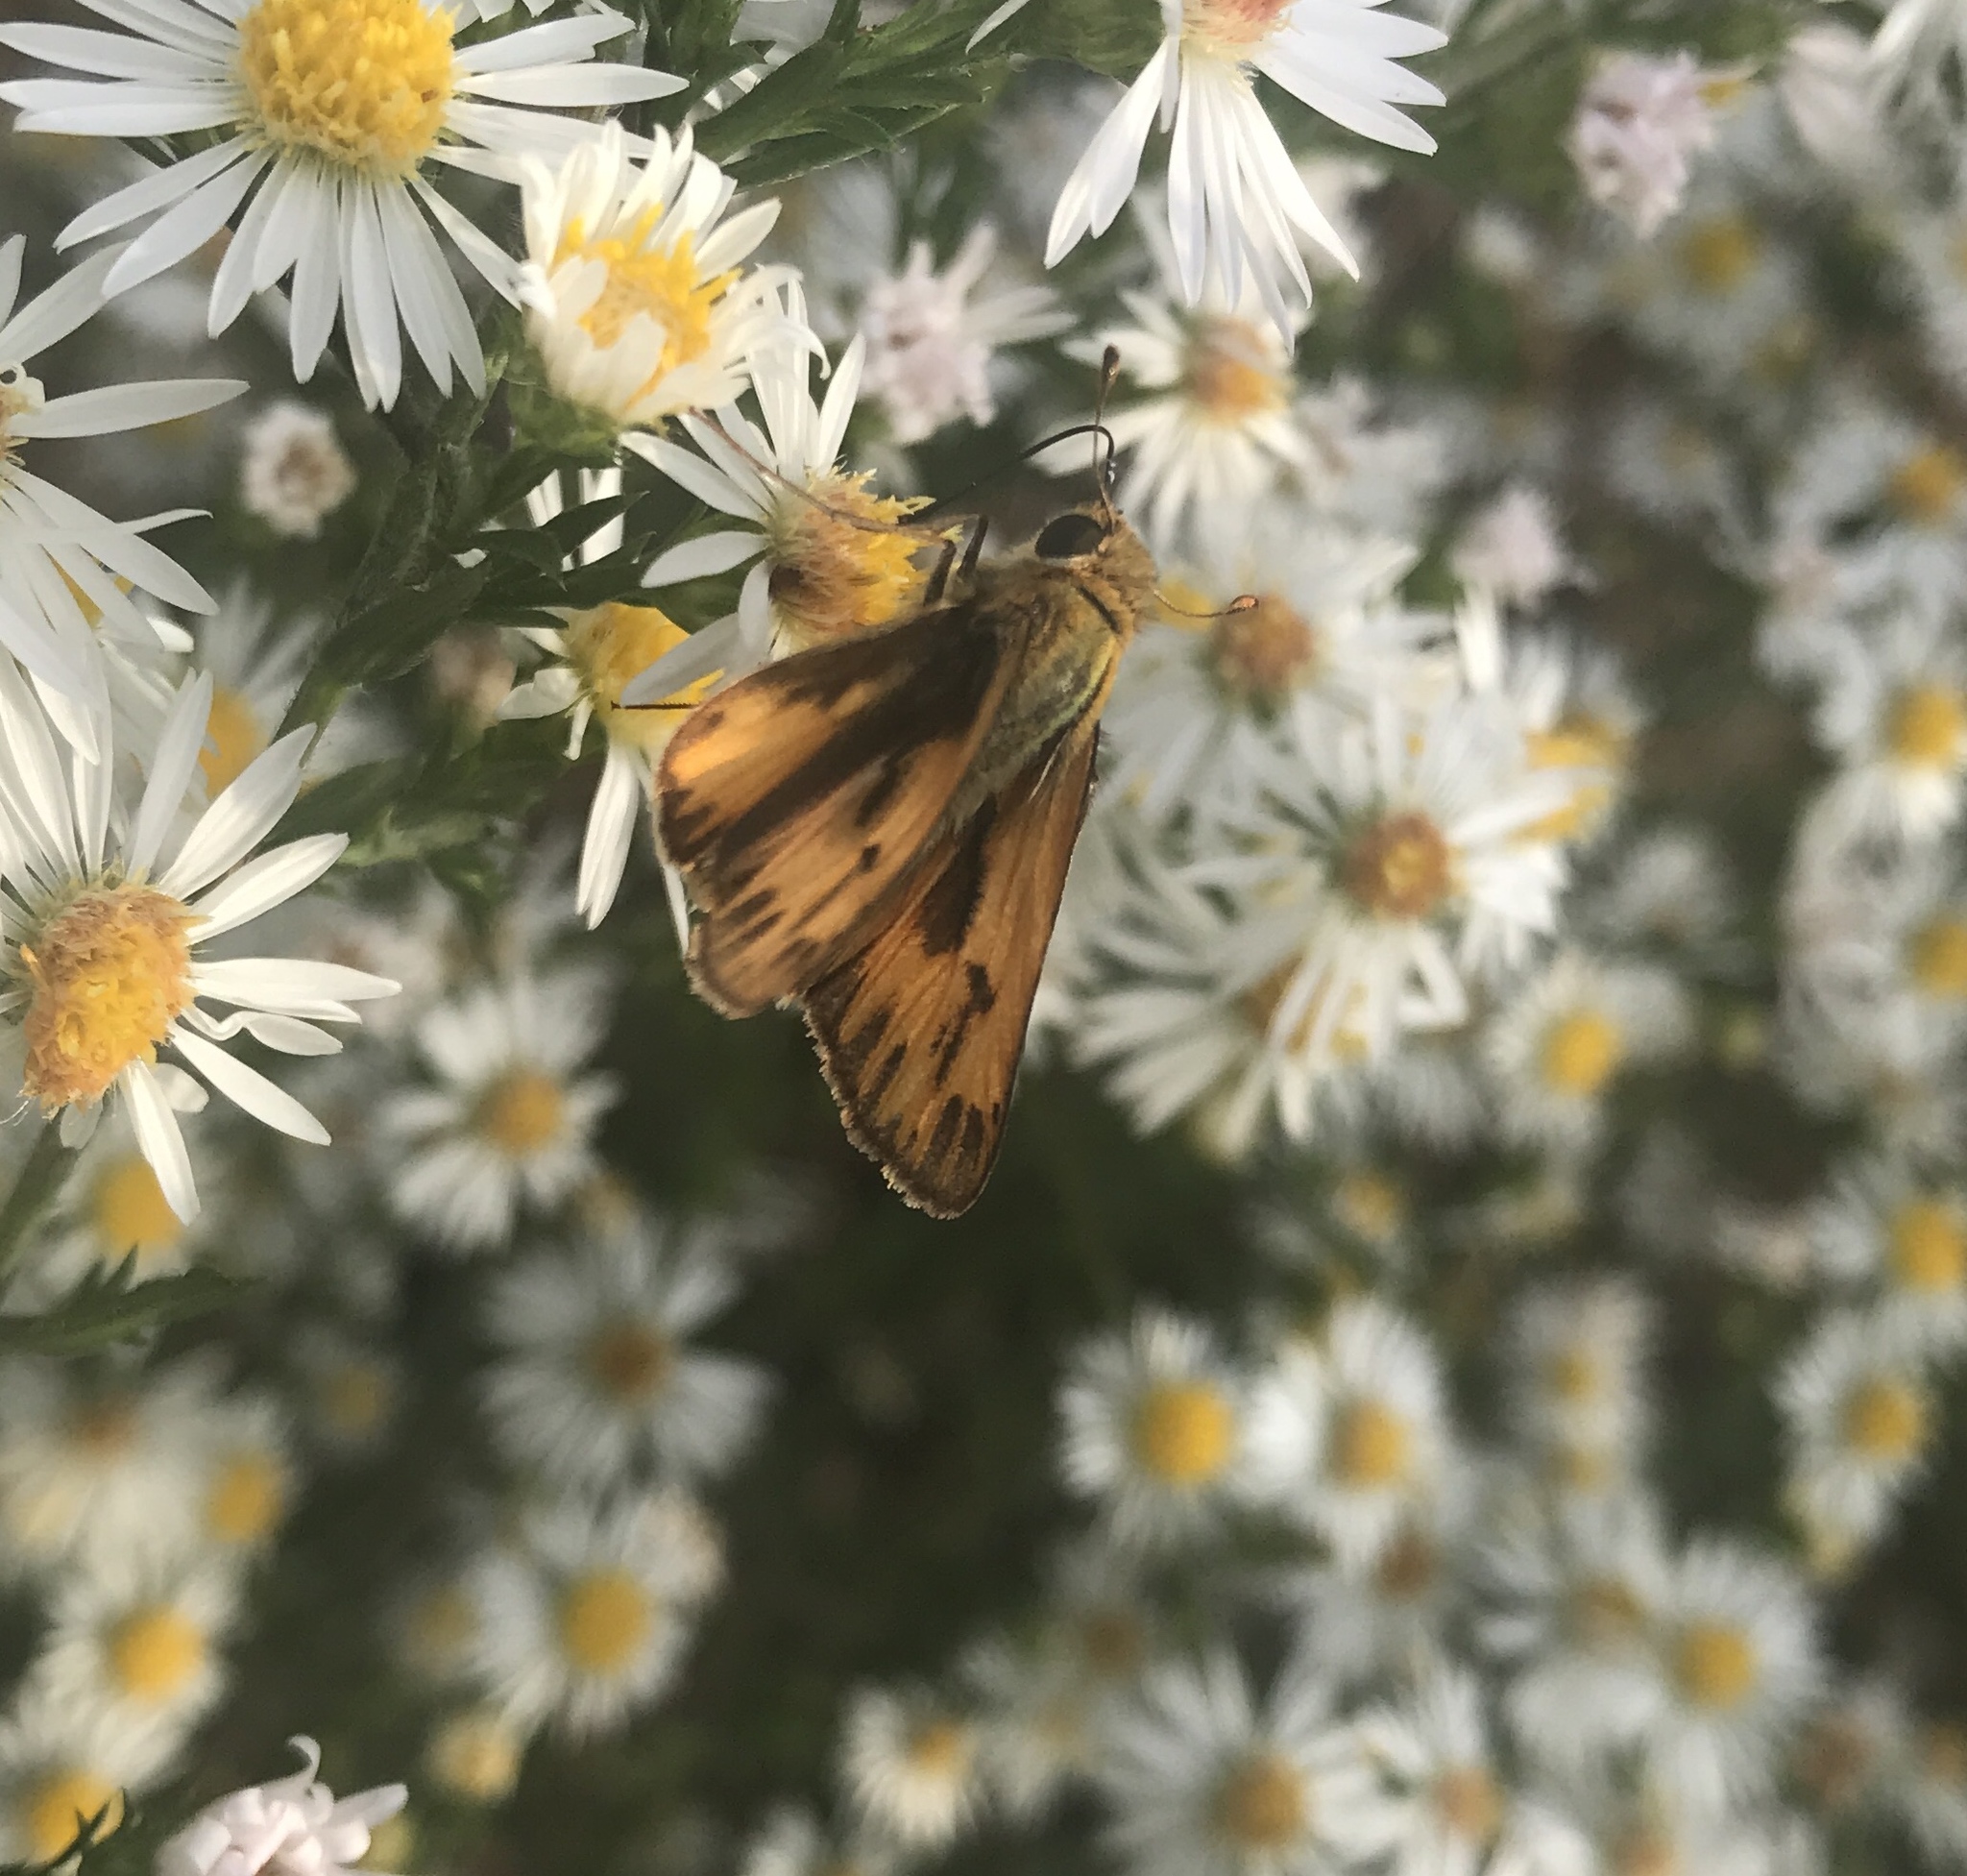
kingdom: Animalia
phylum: Arthropoda
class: Insecta
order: Lepidoptera
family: Hesperiidae
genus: Hylephila
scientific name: Hylephila phyleus
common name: Fiery skipper
